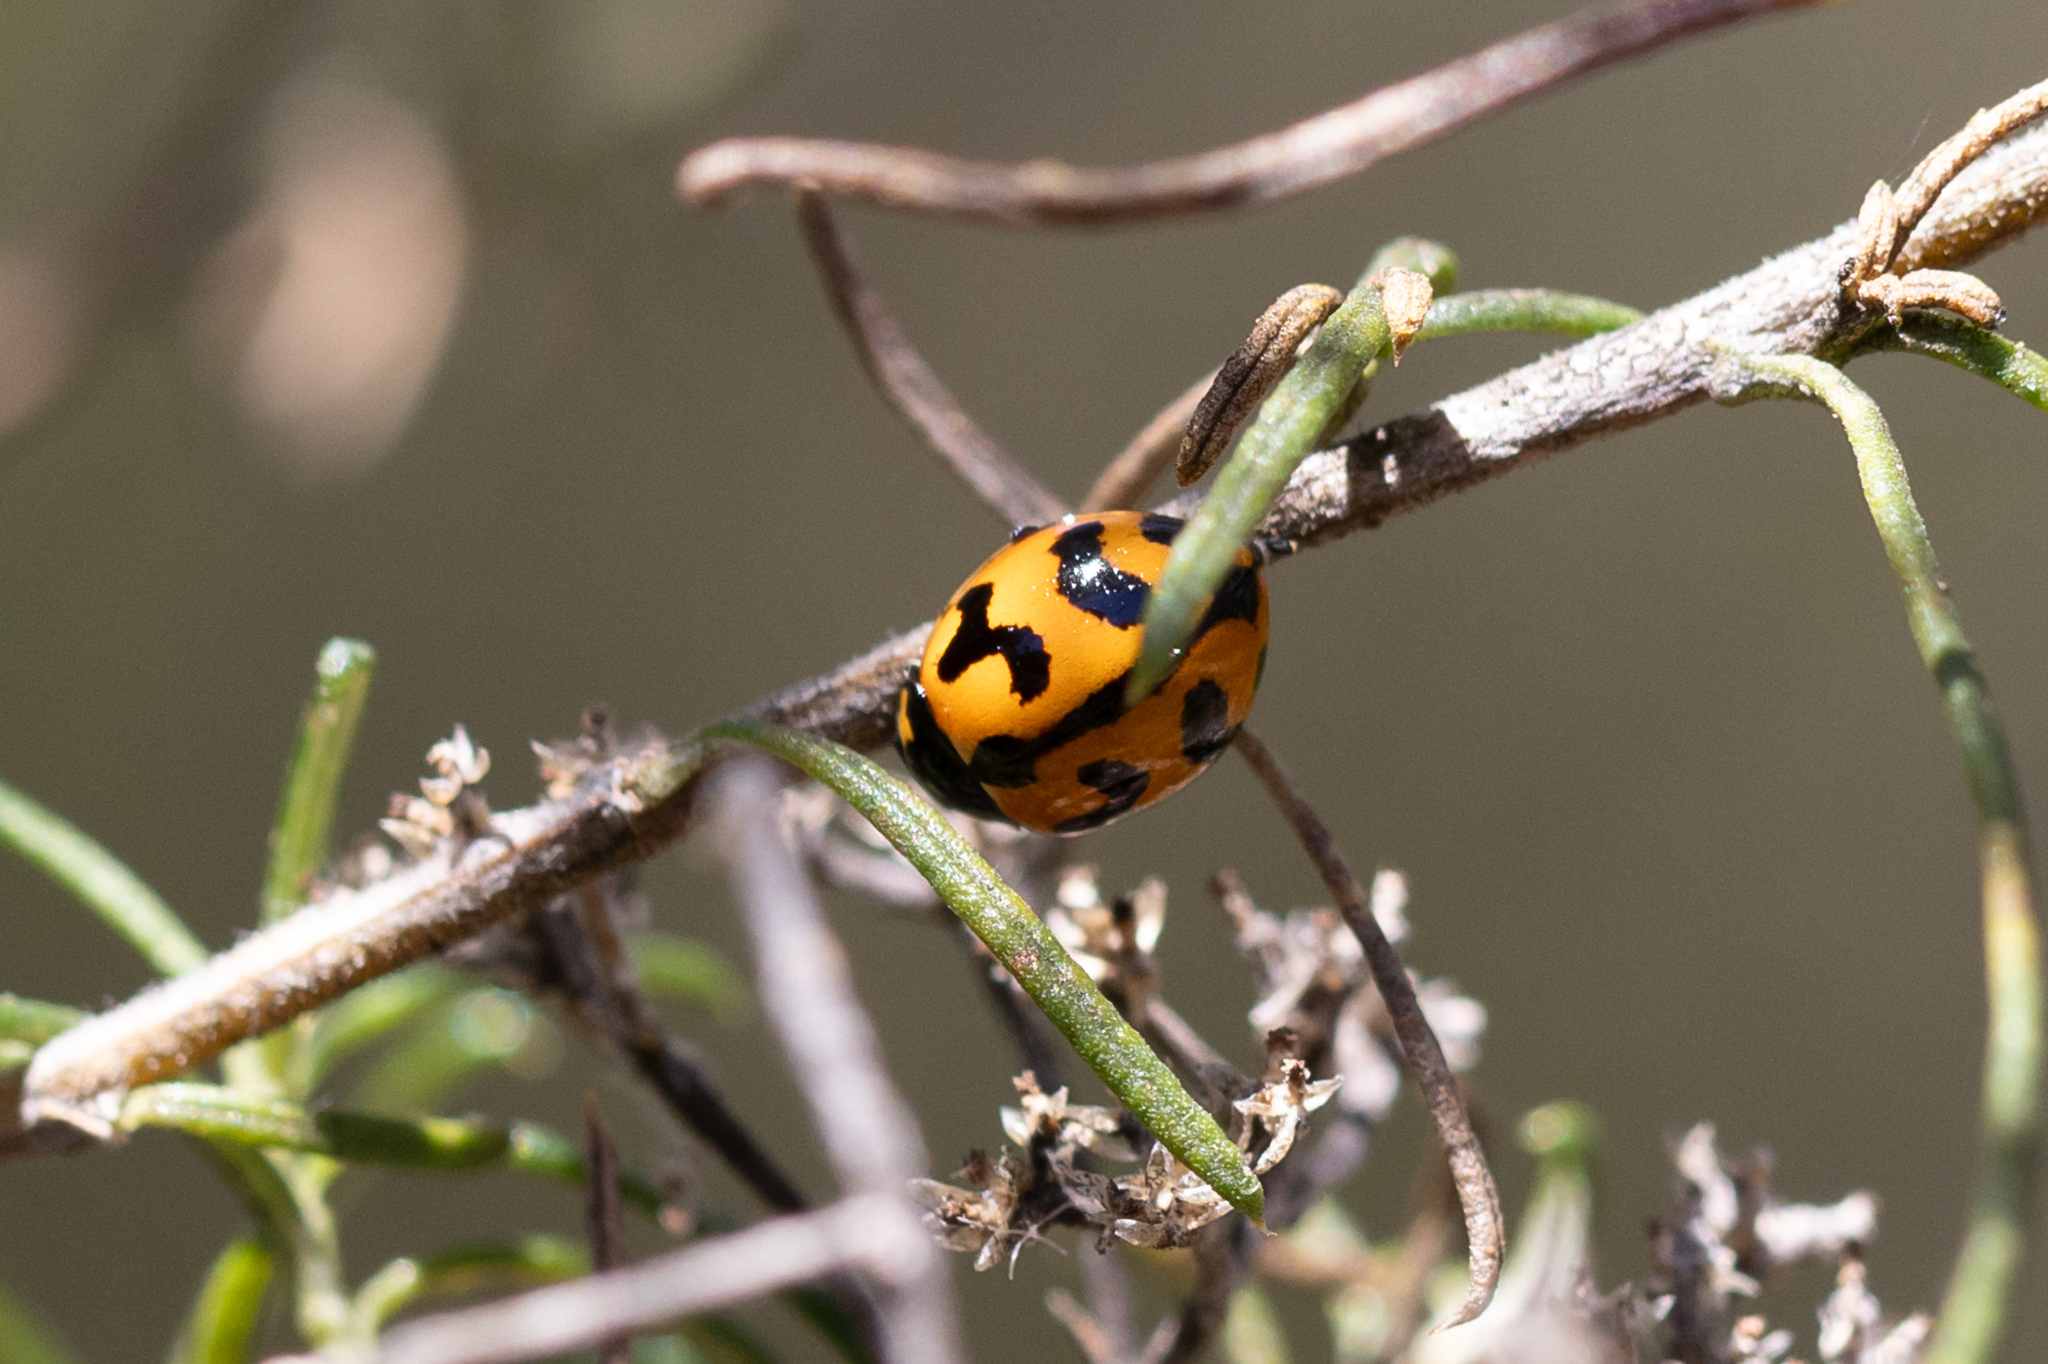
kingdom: Animalia
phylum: Arthropoda
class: Insecta
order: Coleoptera
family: Coccinellidae
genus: Coccinella
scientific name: Coccinella transversalis
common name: Transverse lady beetle
